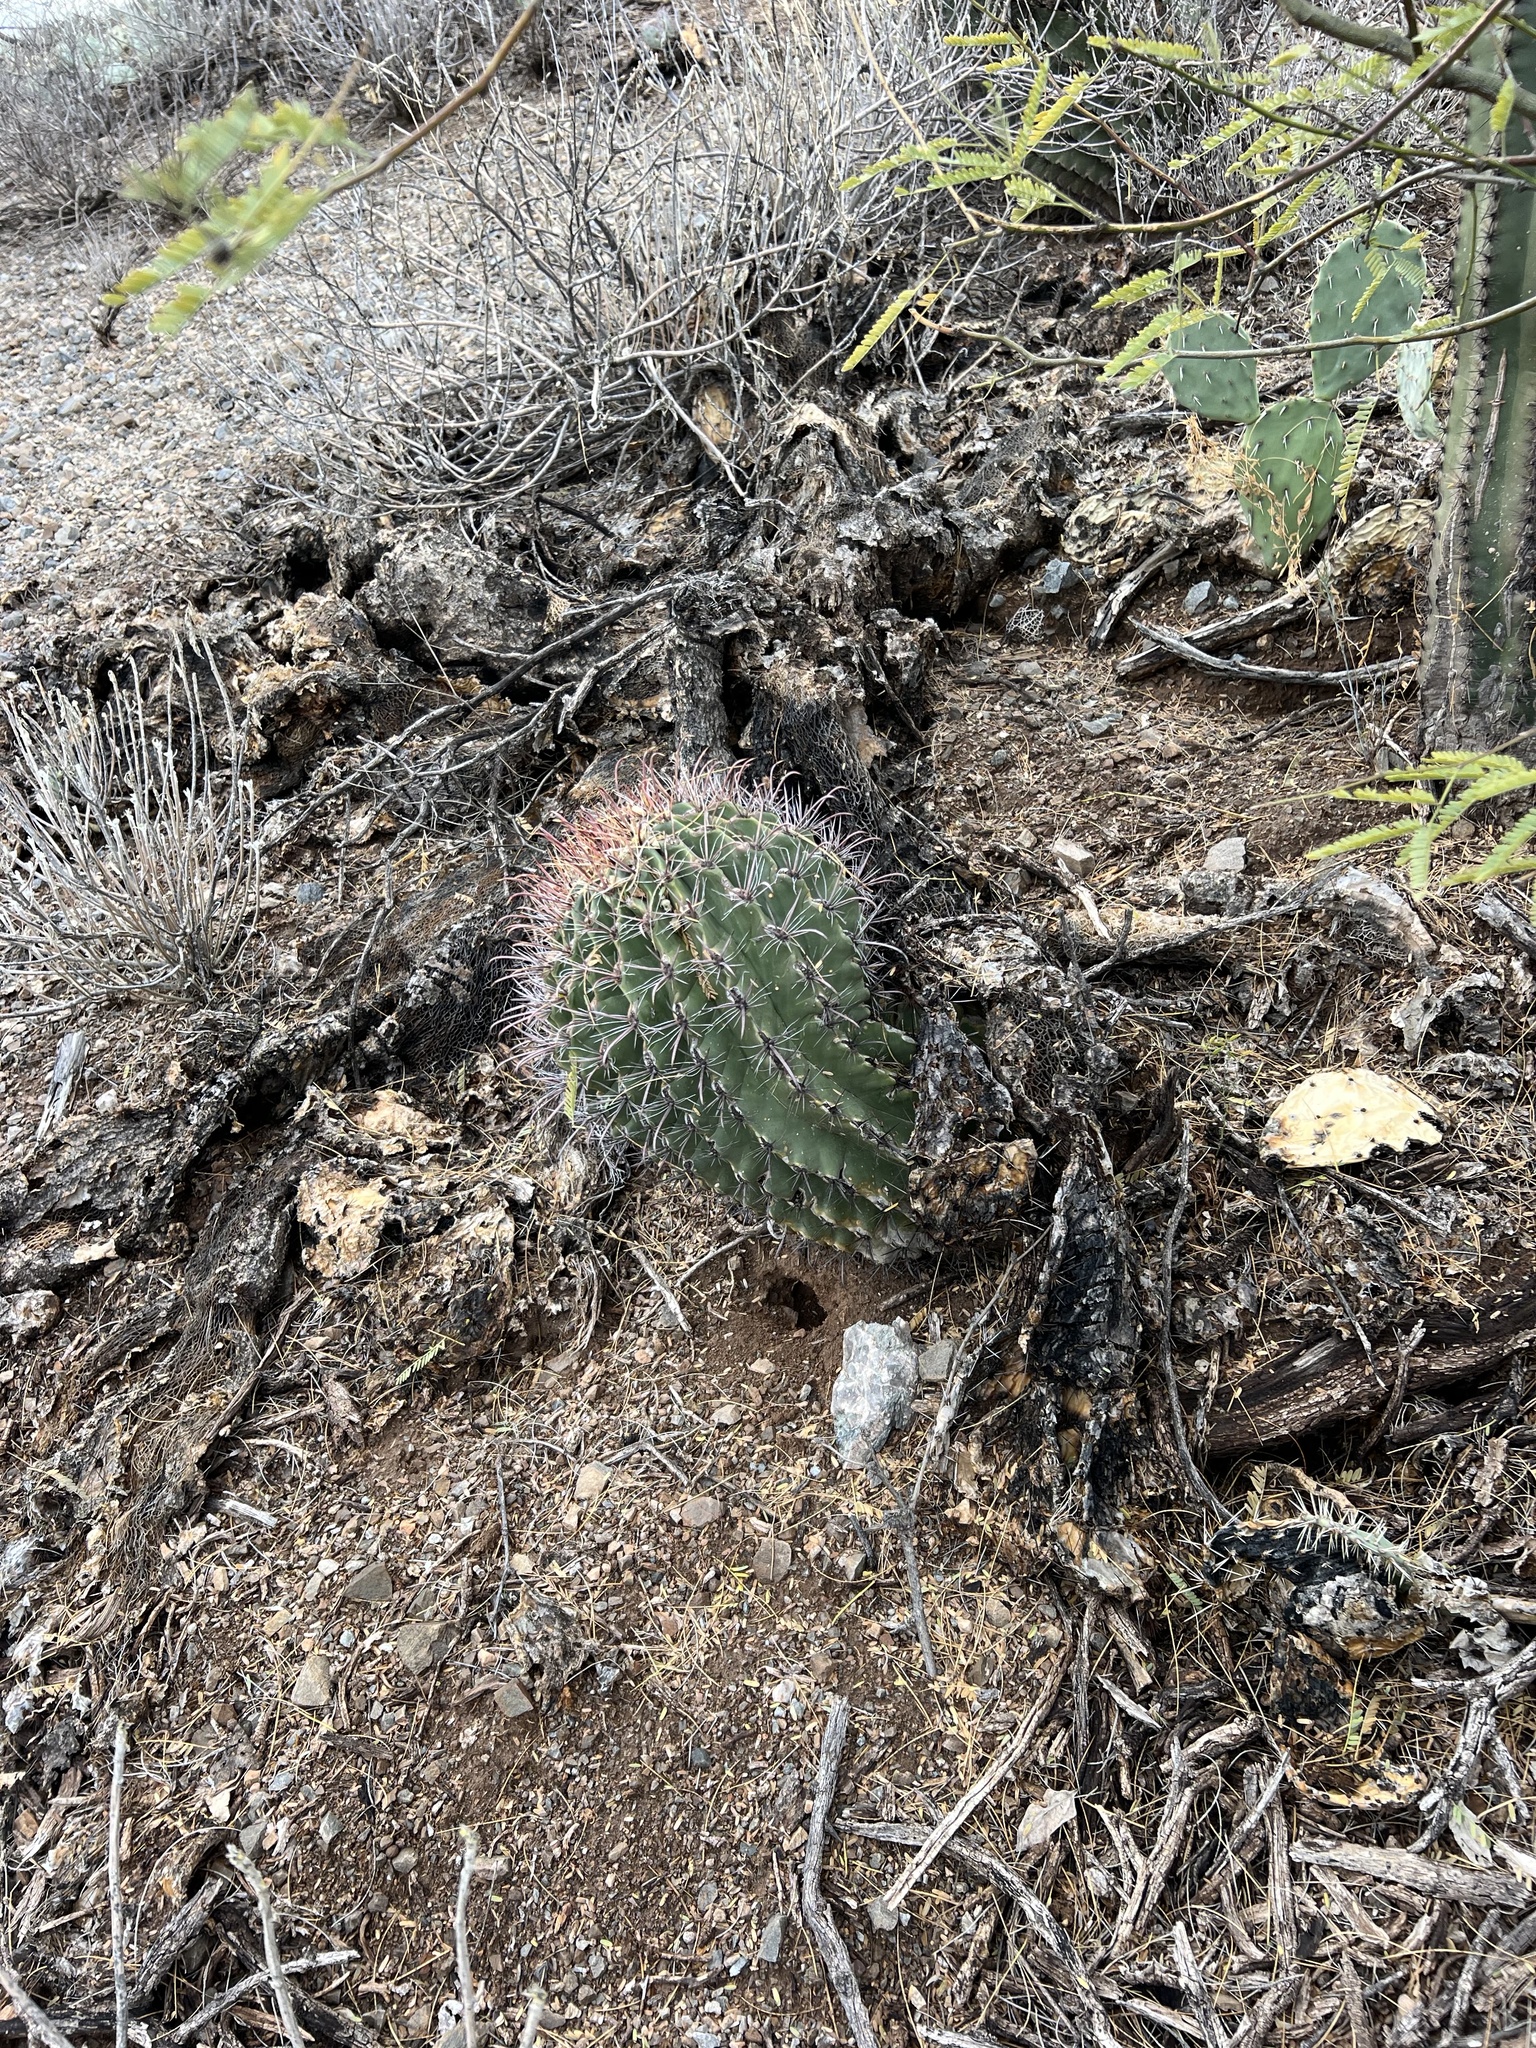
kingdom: Plantae
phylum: Tracheophyta
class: Magnoliopsida
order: Caryophyllales
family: Cactaceae
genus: Ferocactus
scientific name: Ferocactus wislizeni
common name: Candy barrel cactus
